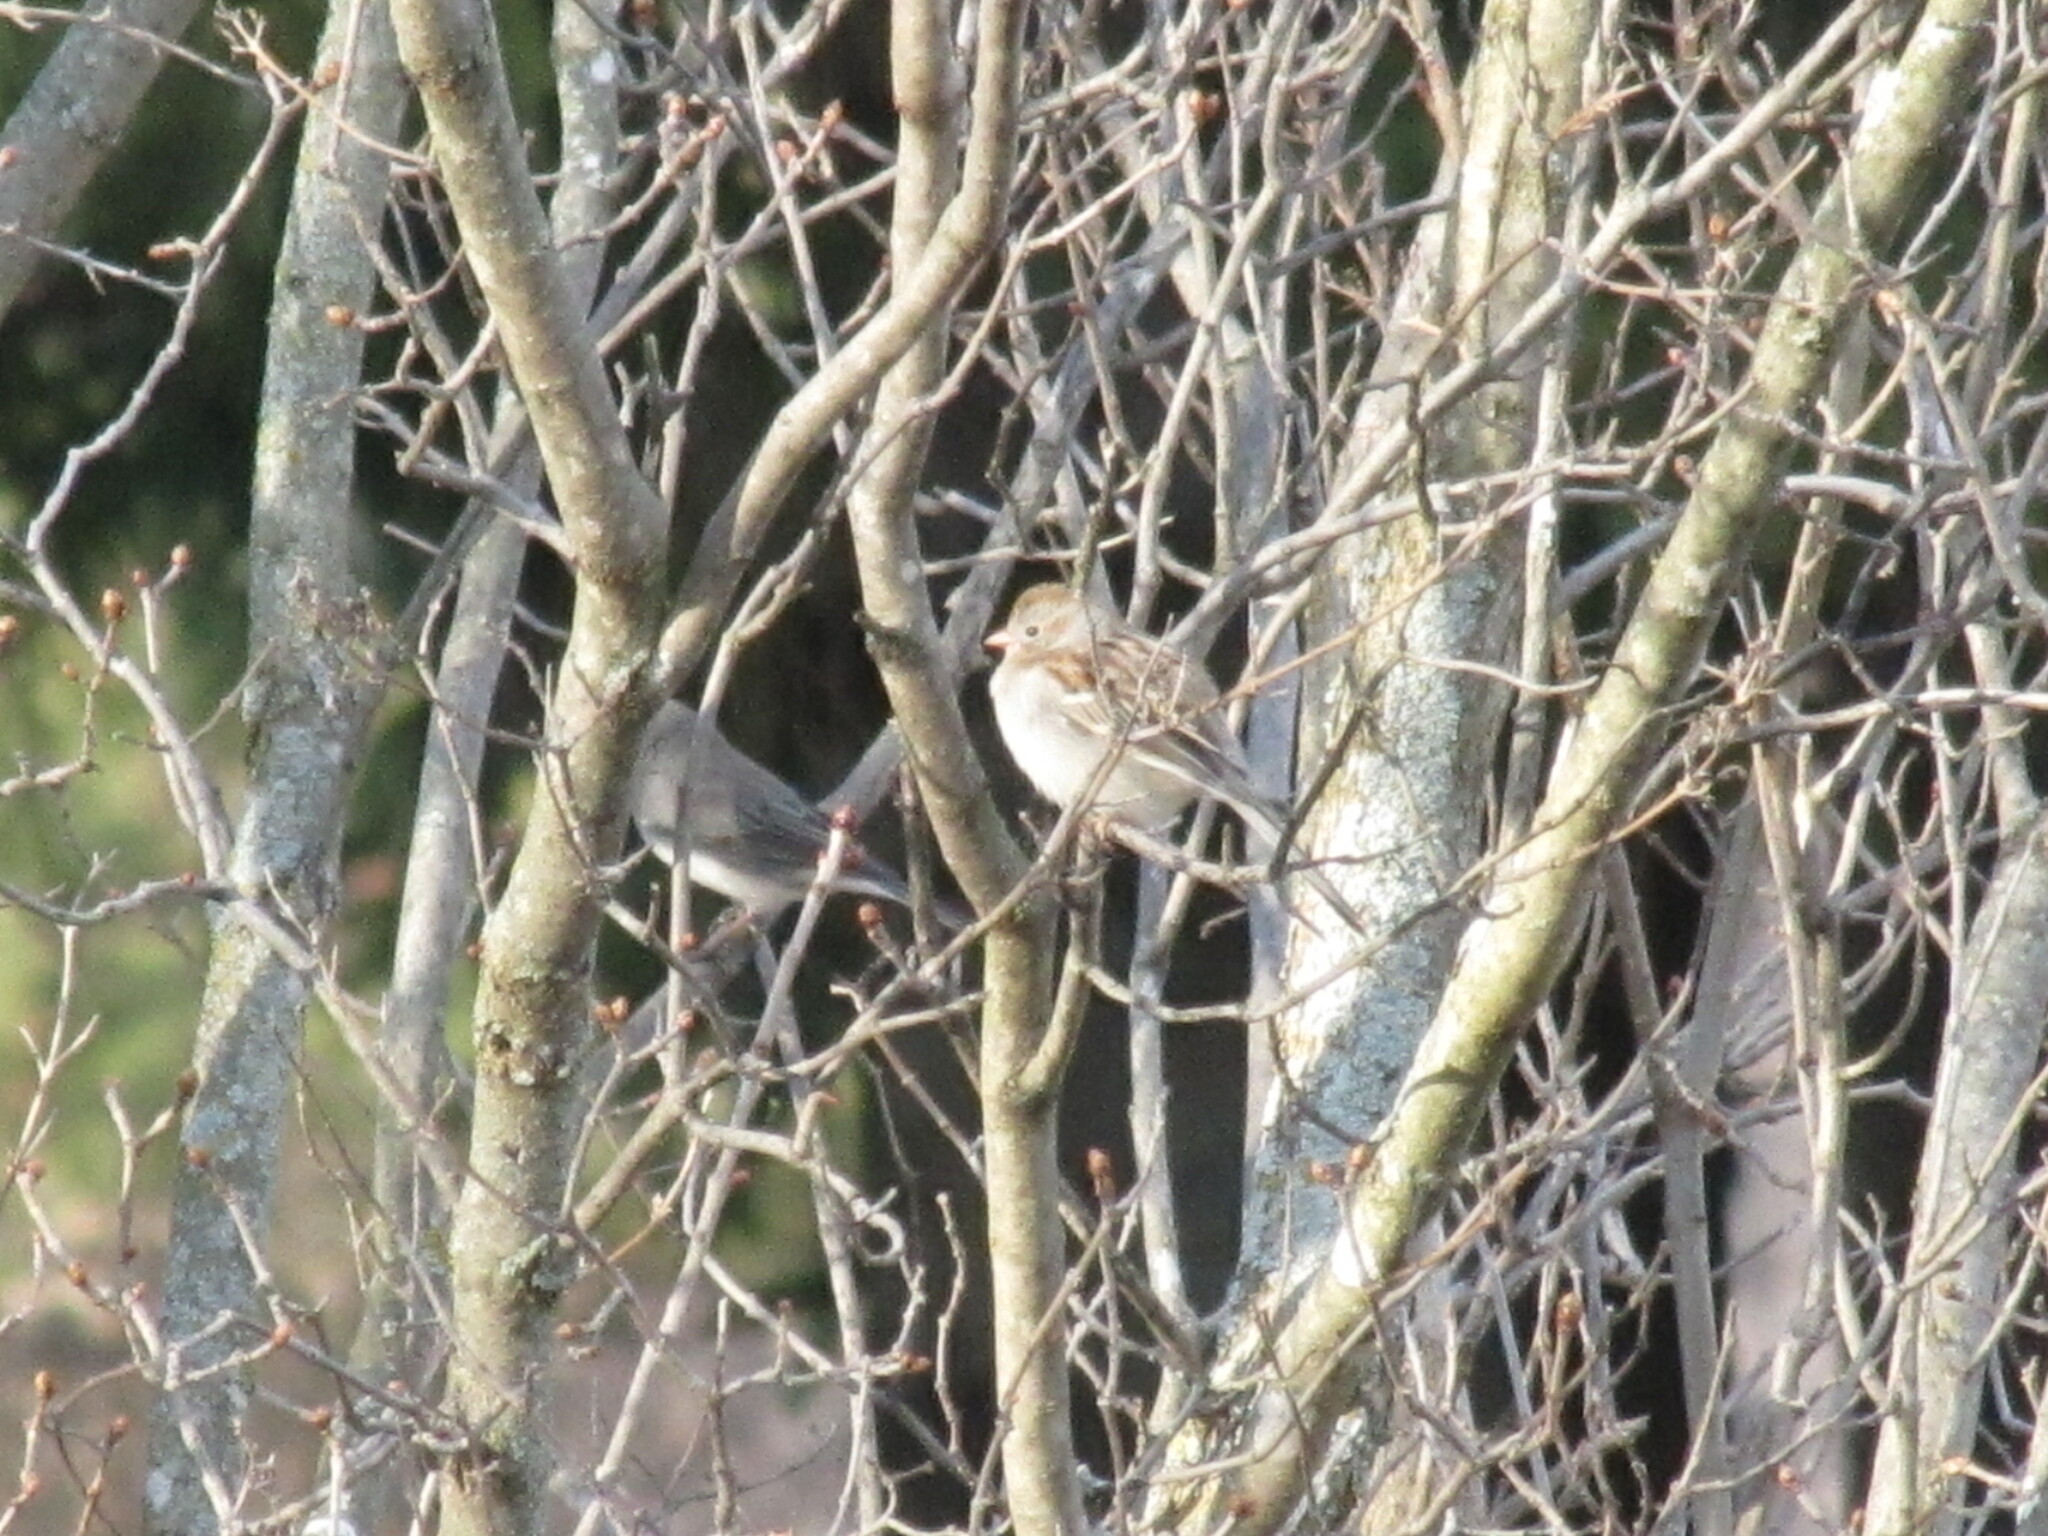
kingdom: Animalia
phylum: Chordata
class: Aves
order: Passeriformes
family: Passerellidae
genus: Spizella
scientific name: Spizella pusilla
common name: Field sparrow
